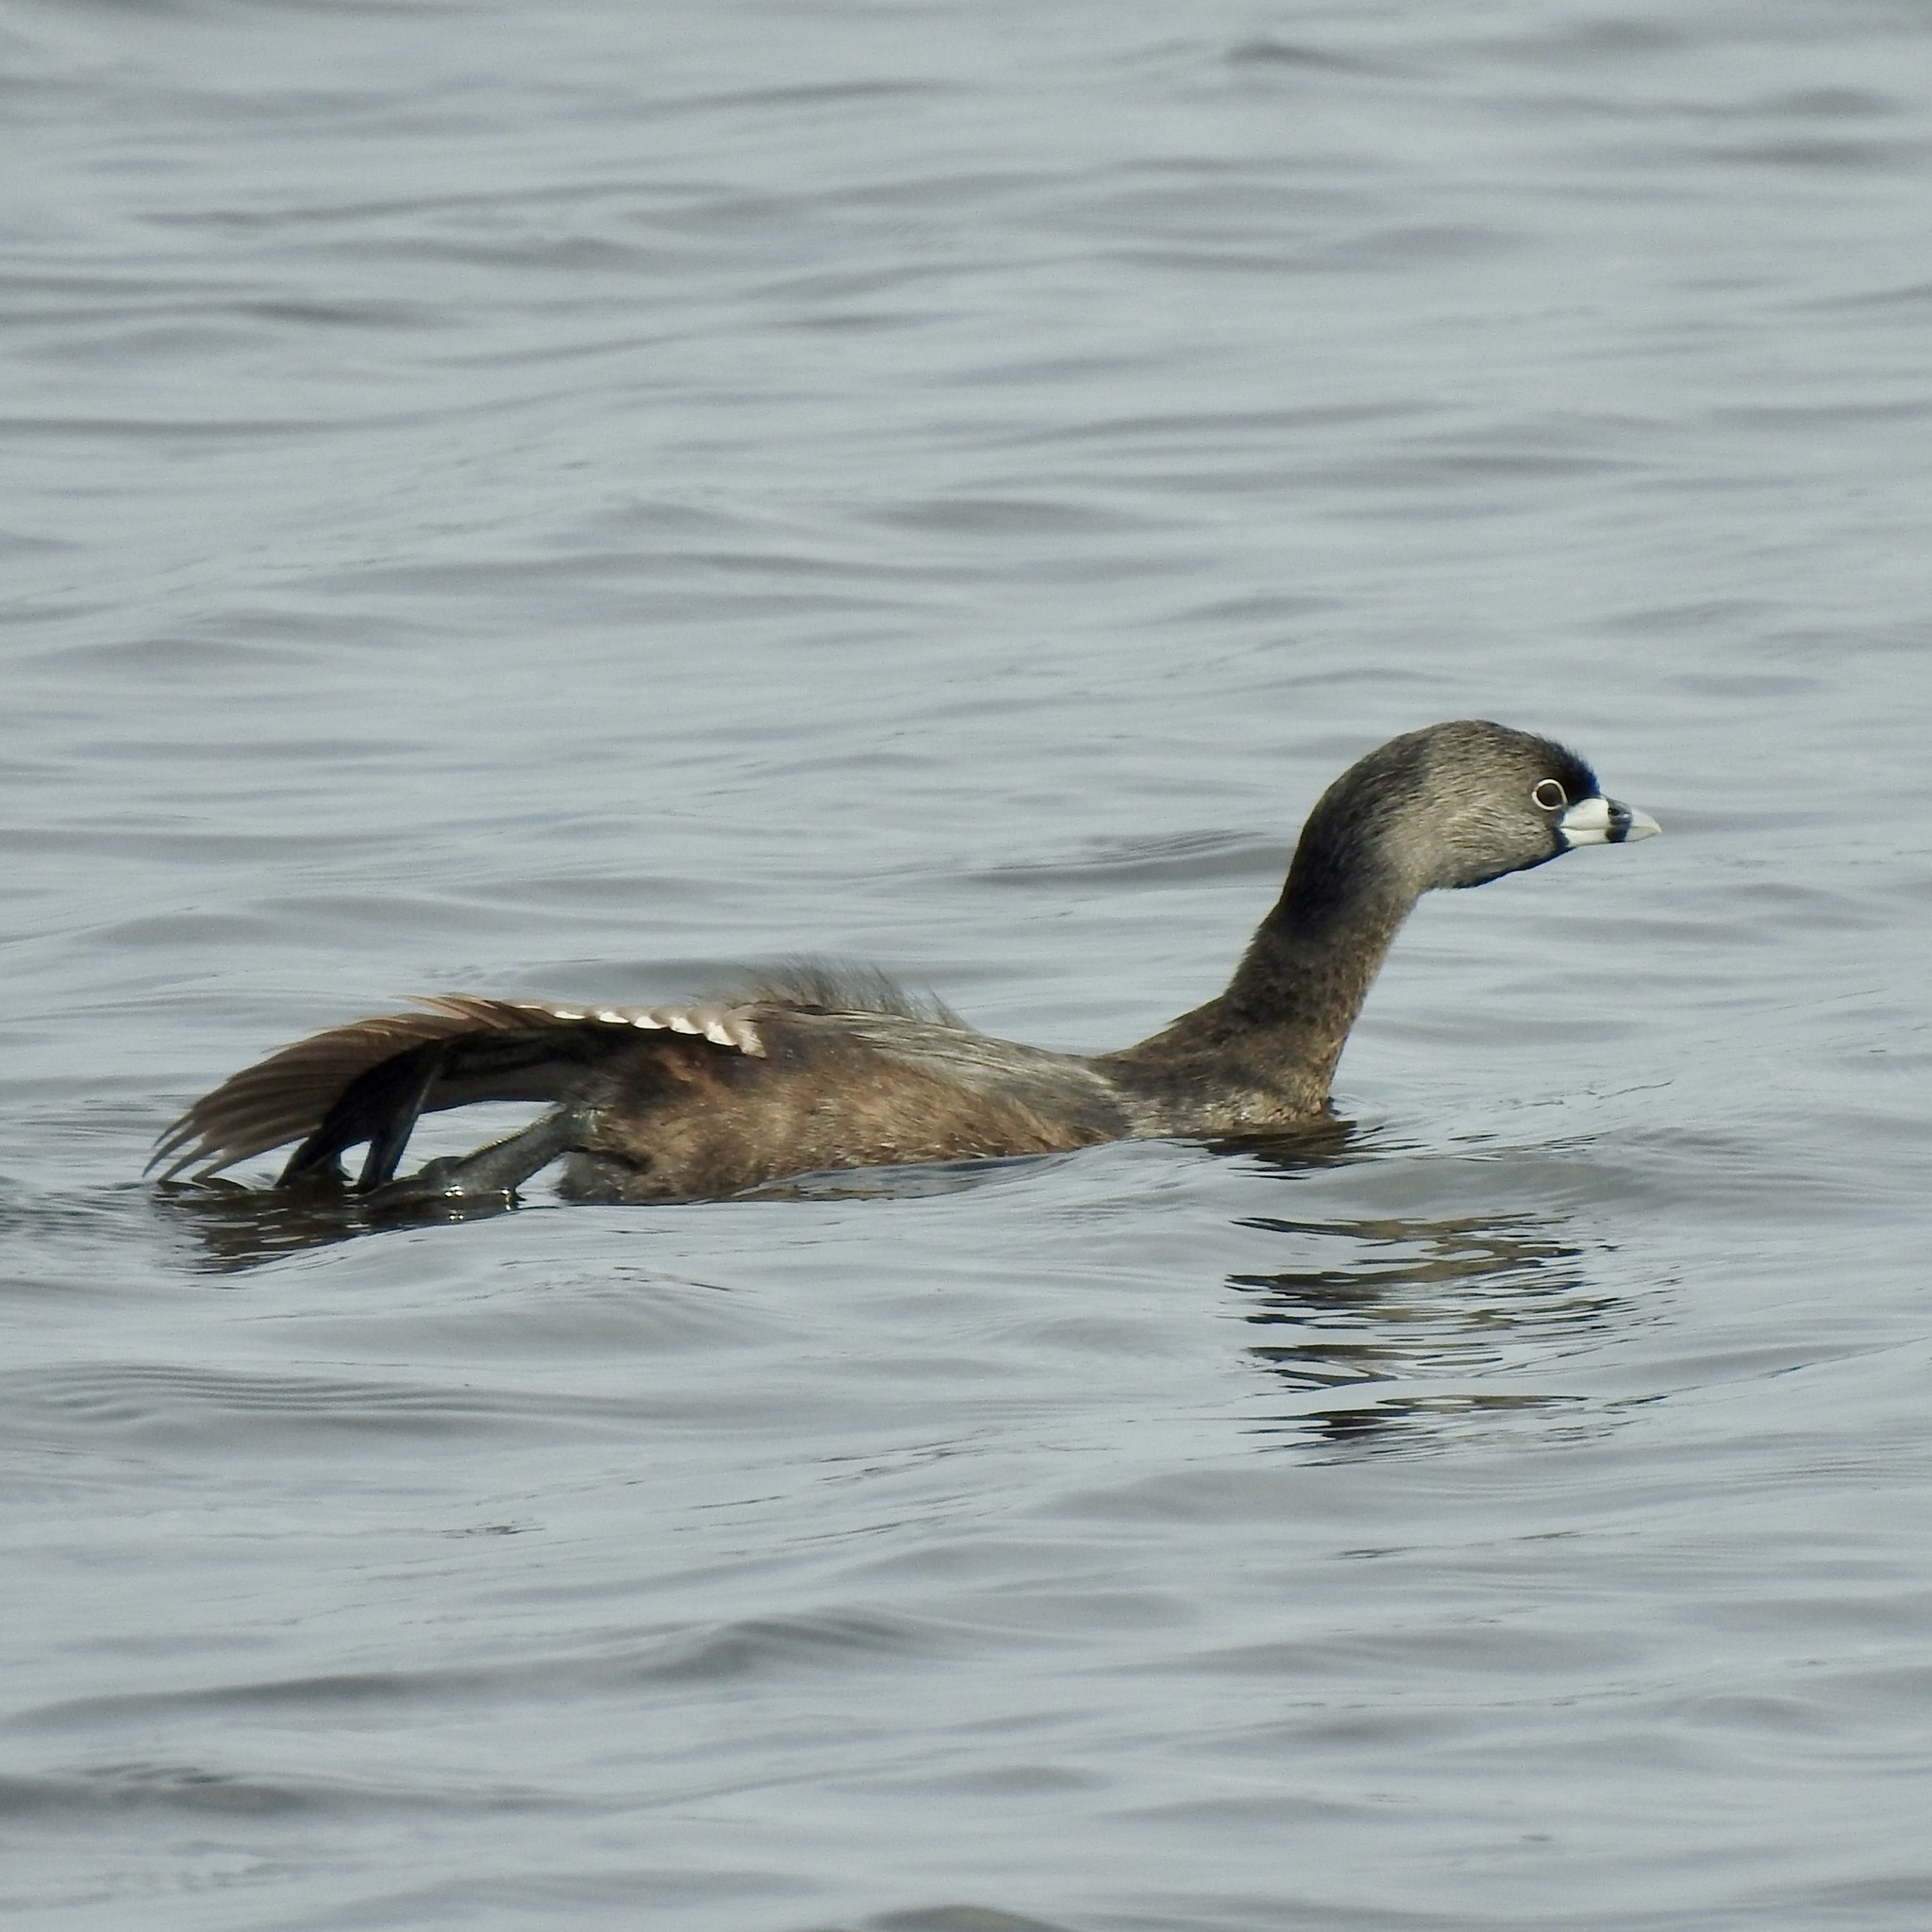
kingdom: Animalia
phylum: Chordata
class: Aves
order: Podicipediformes
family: Podicipedidae
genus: Podilymbus
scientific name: Podilymbus podiceps
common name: Pied-billed grebe
